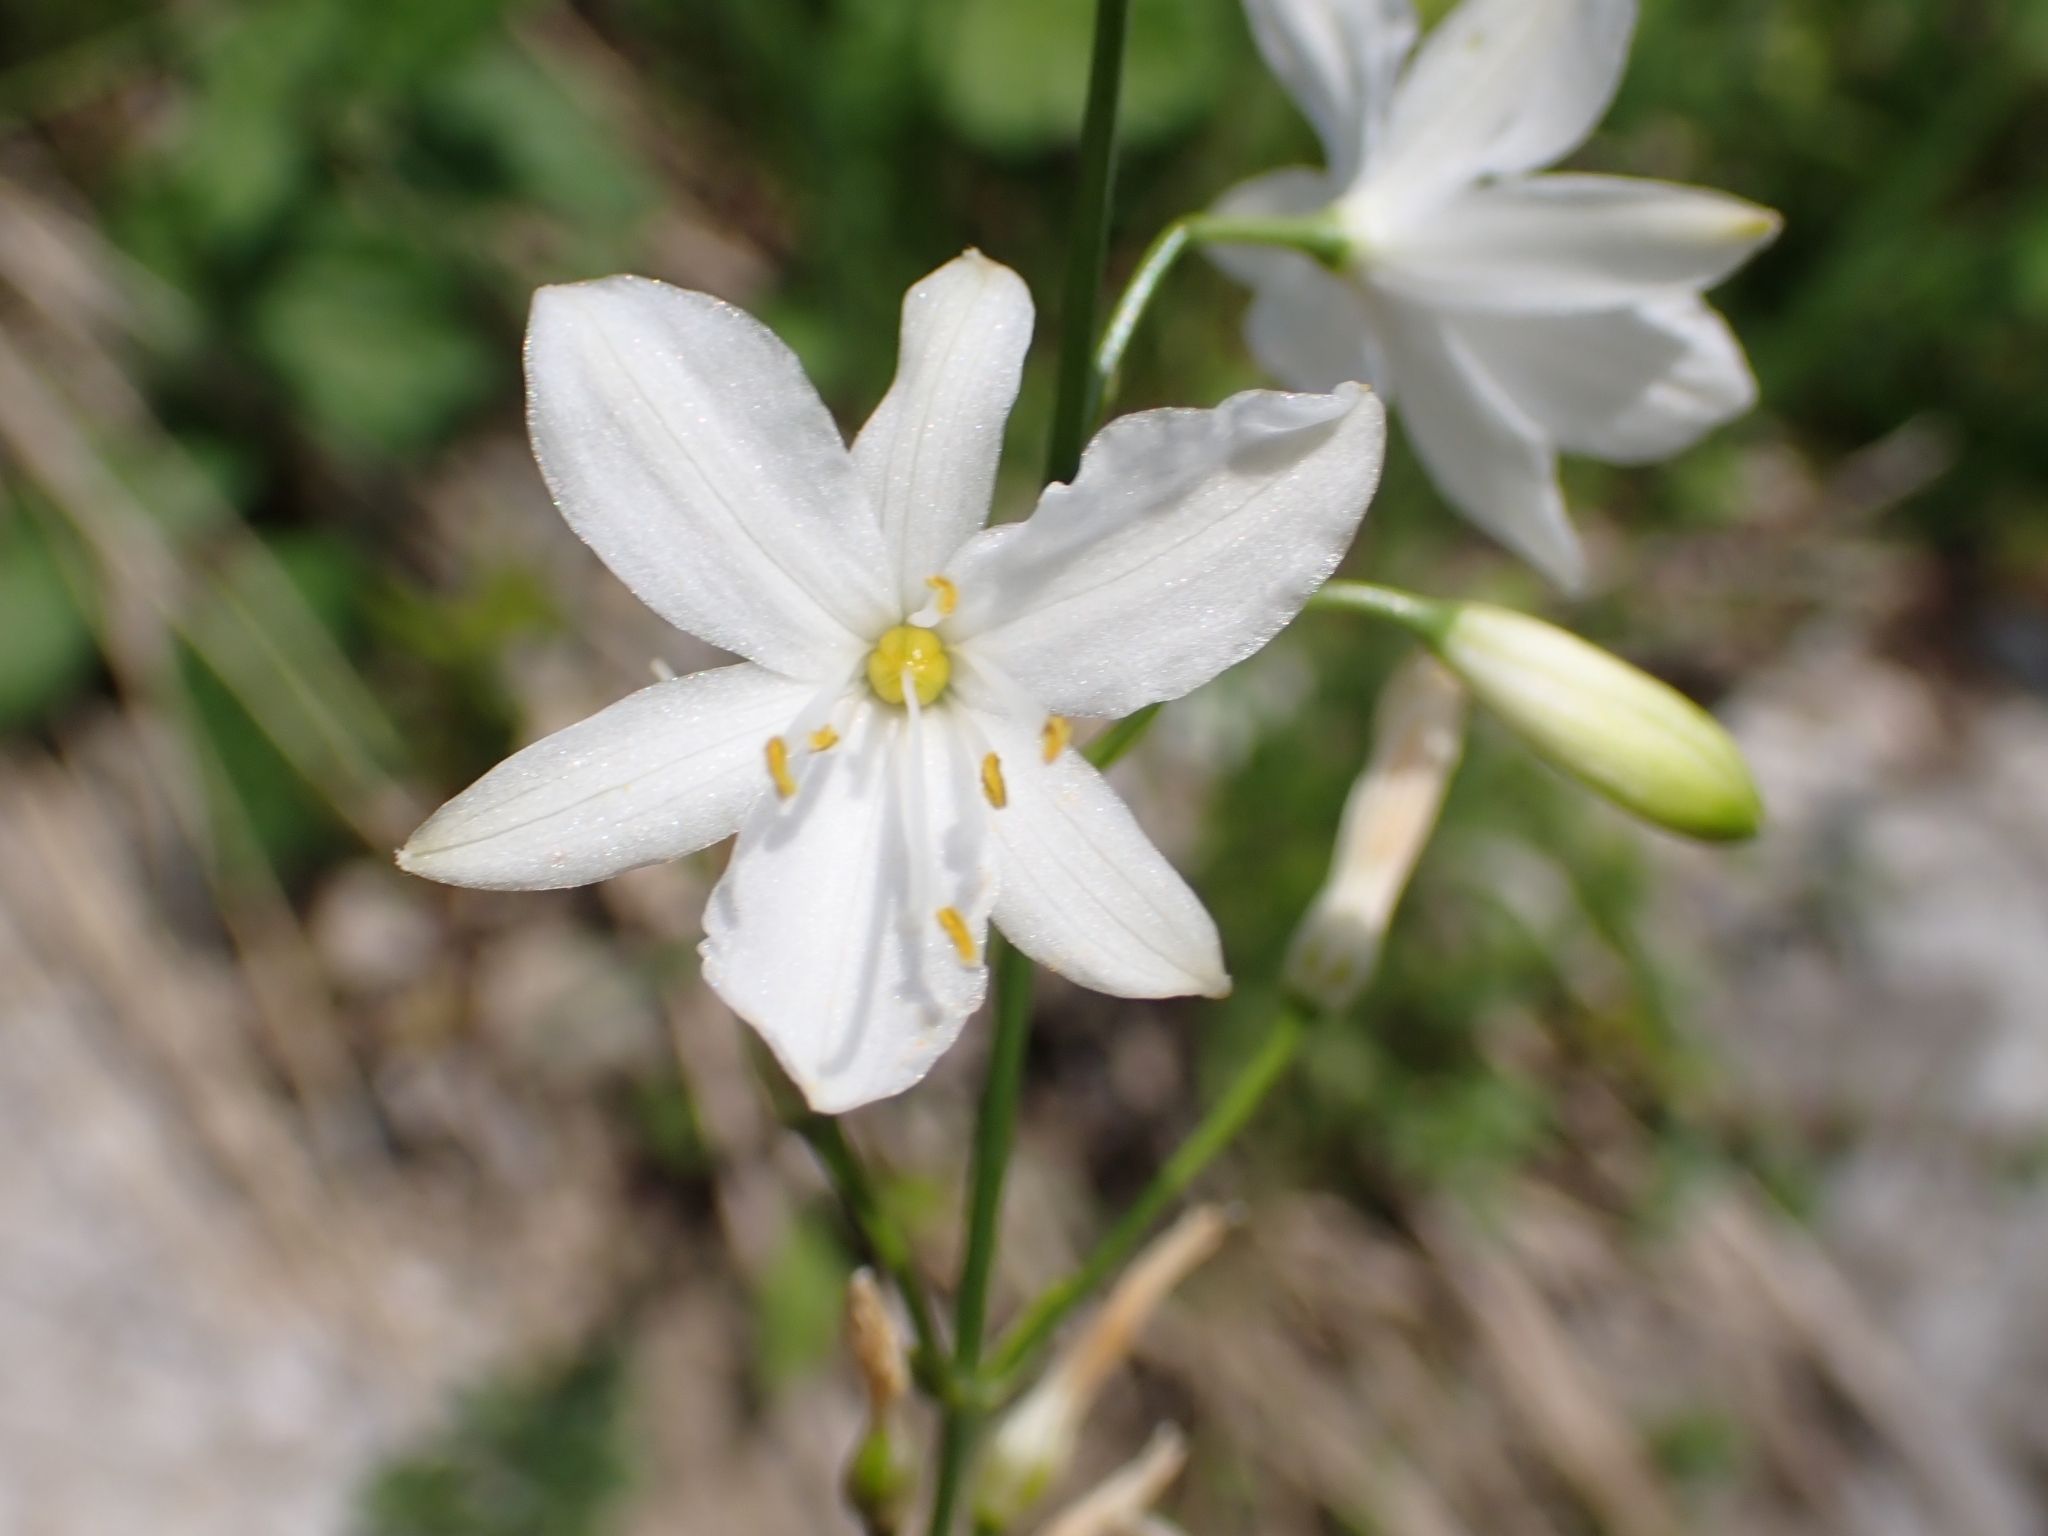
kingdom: Plantae
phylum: Tracheophyta
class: Liliopsida
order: Asparagales
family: Asparagaceae
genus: Anthericum
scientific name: Anthericum ramosum
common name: Branched st. bernard's-lily
